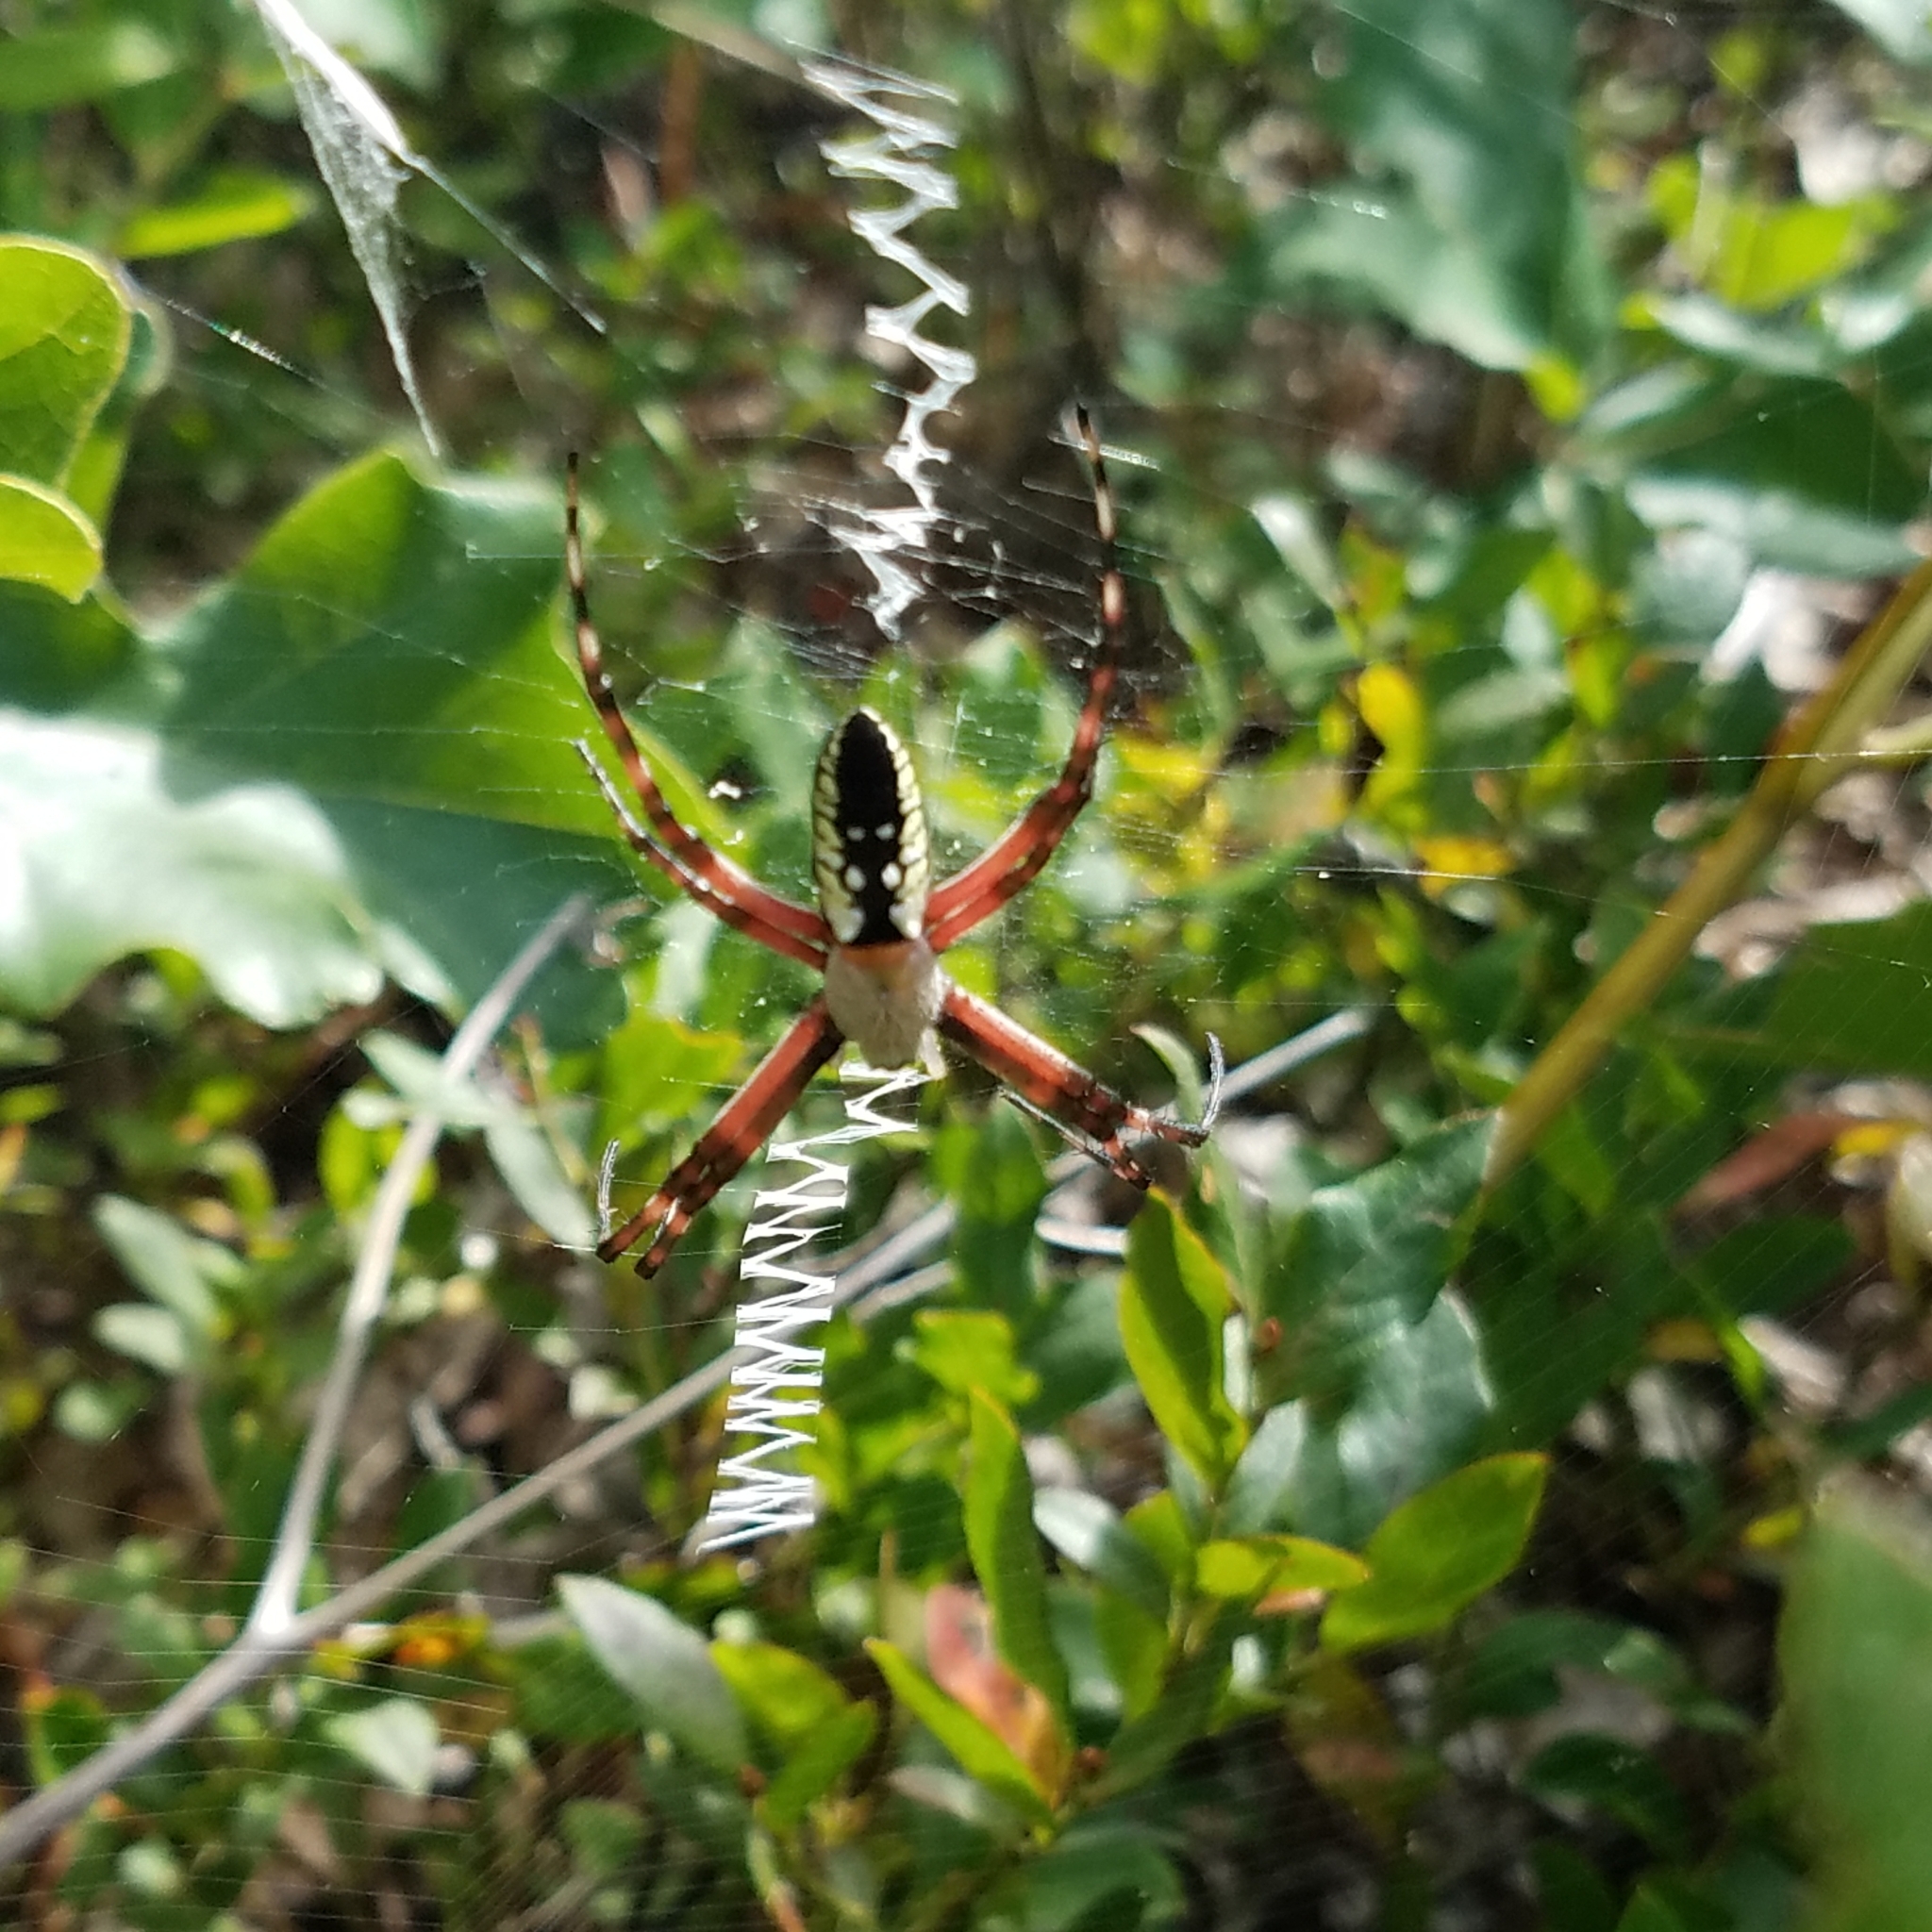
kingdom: Animalia
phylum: Arthropoda
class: Arachnida
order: Araneae
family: Araneidae
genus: Argiope
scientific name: Argiope aurantia
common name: Orb weavers
